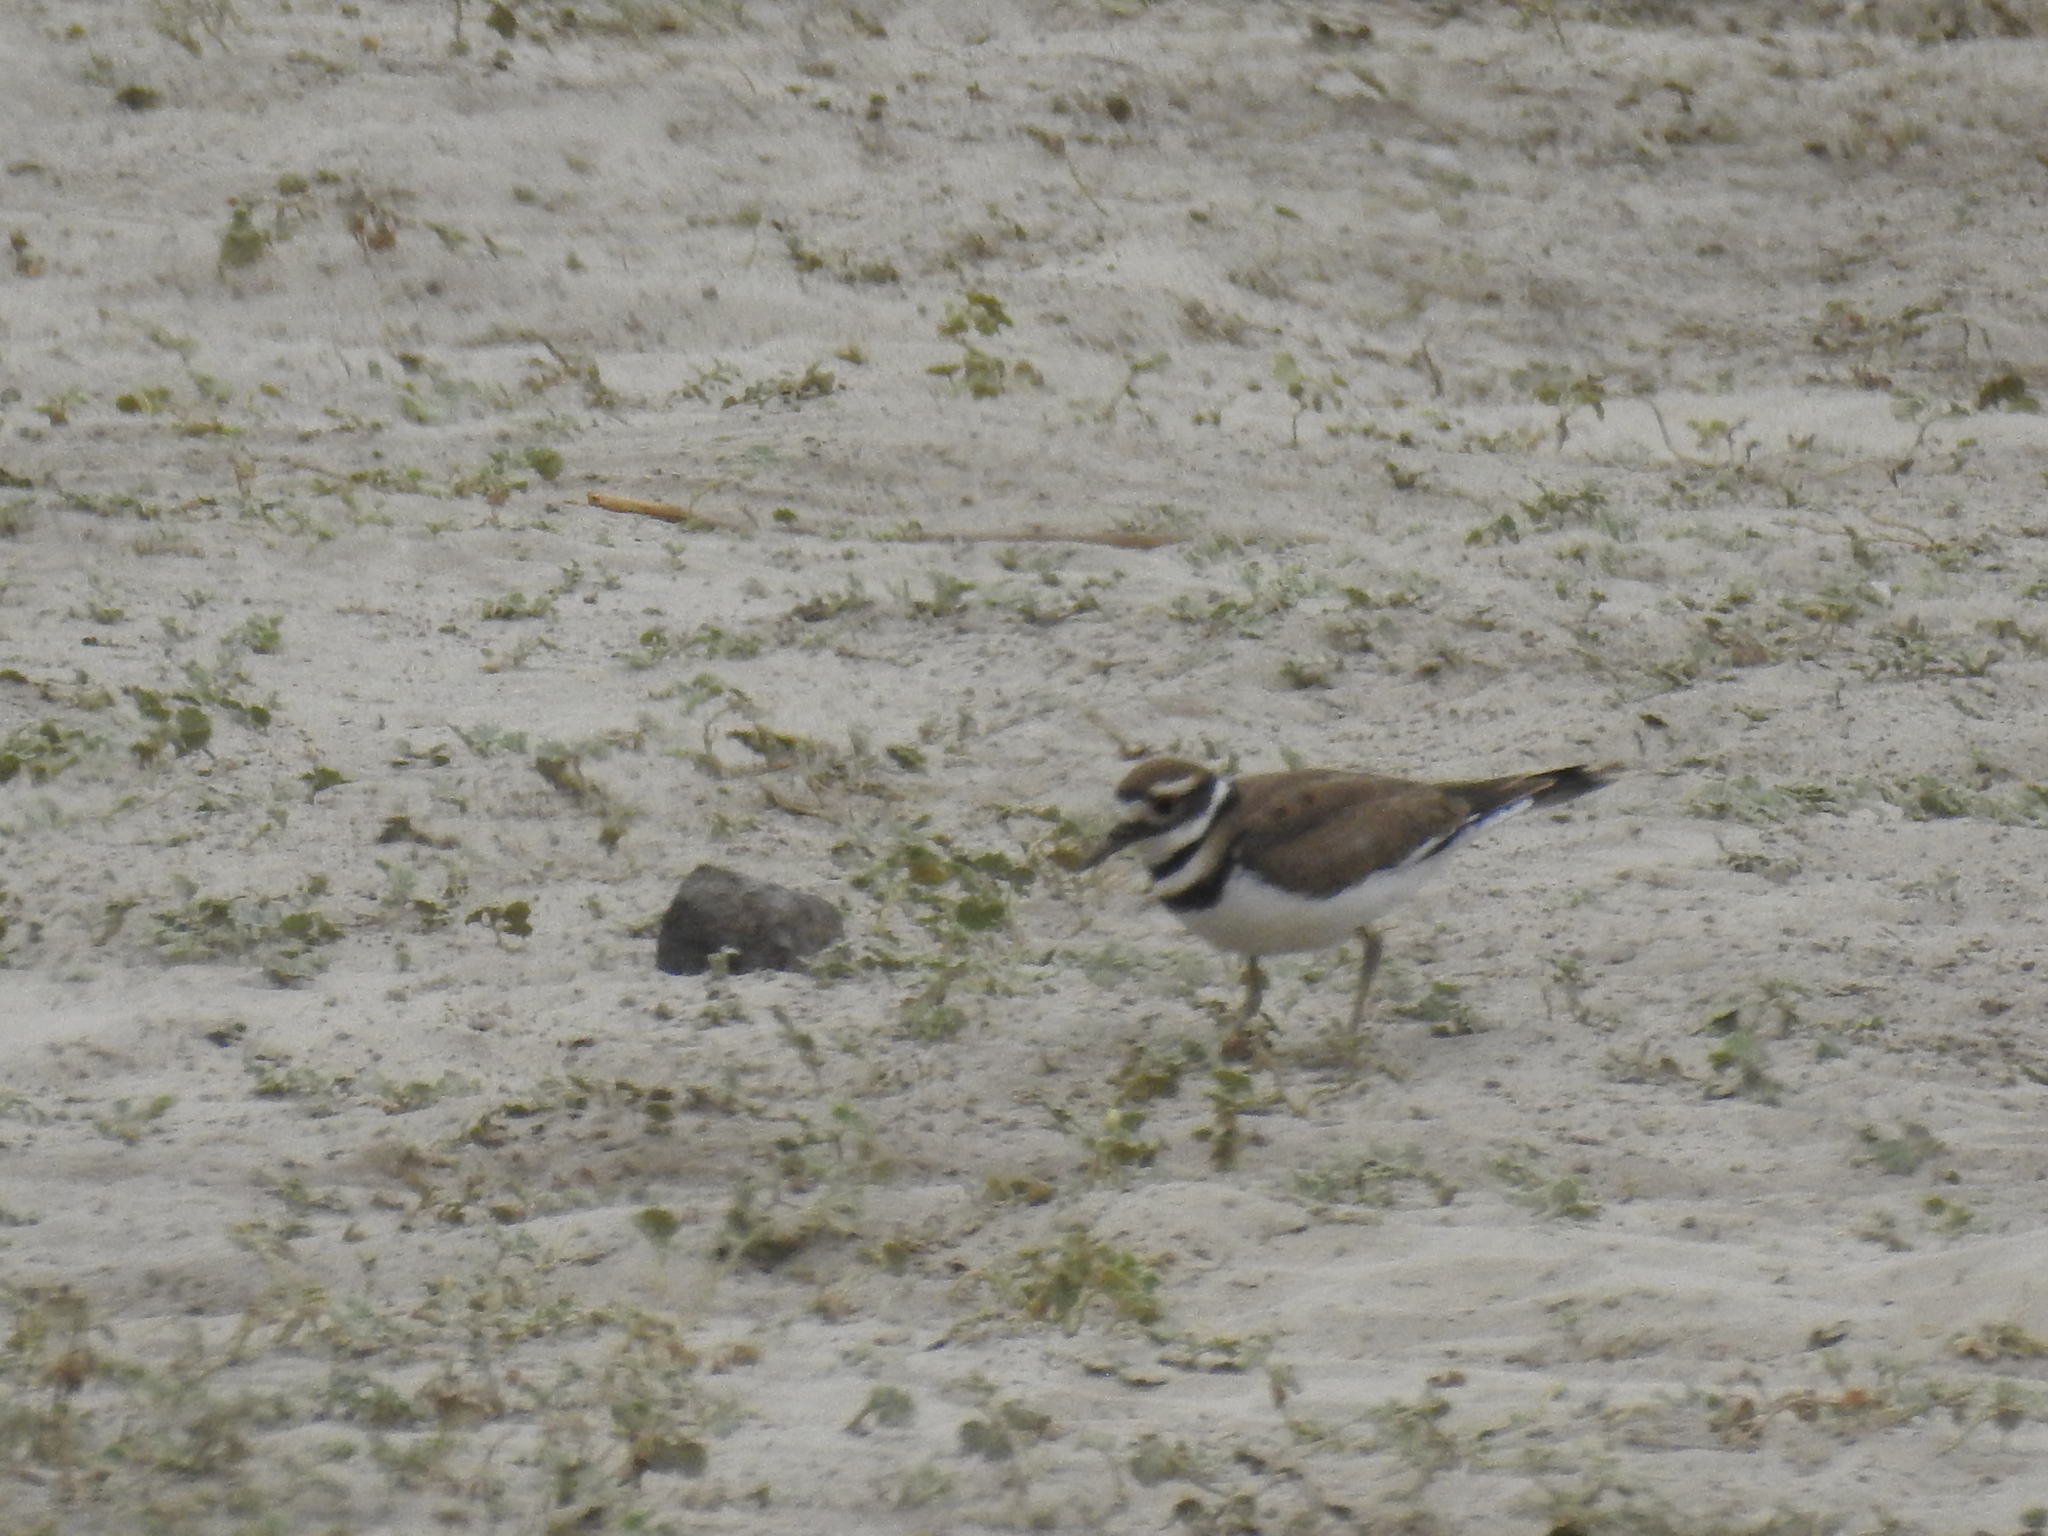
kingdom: Animalia
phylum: Chordata
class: Aves
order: Charadriiformes
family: Charadriidae
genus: Charadrius
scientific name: Charadrius vociferus
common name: Killdeer
